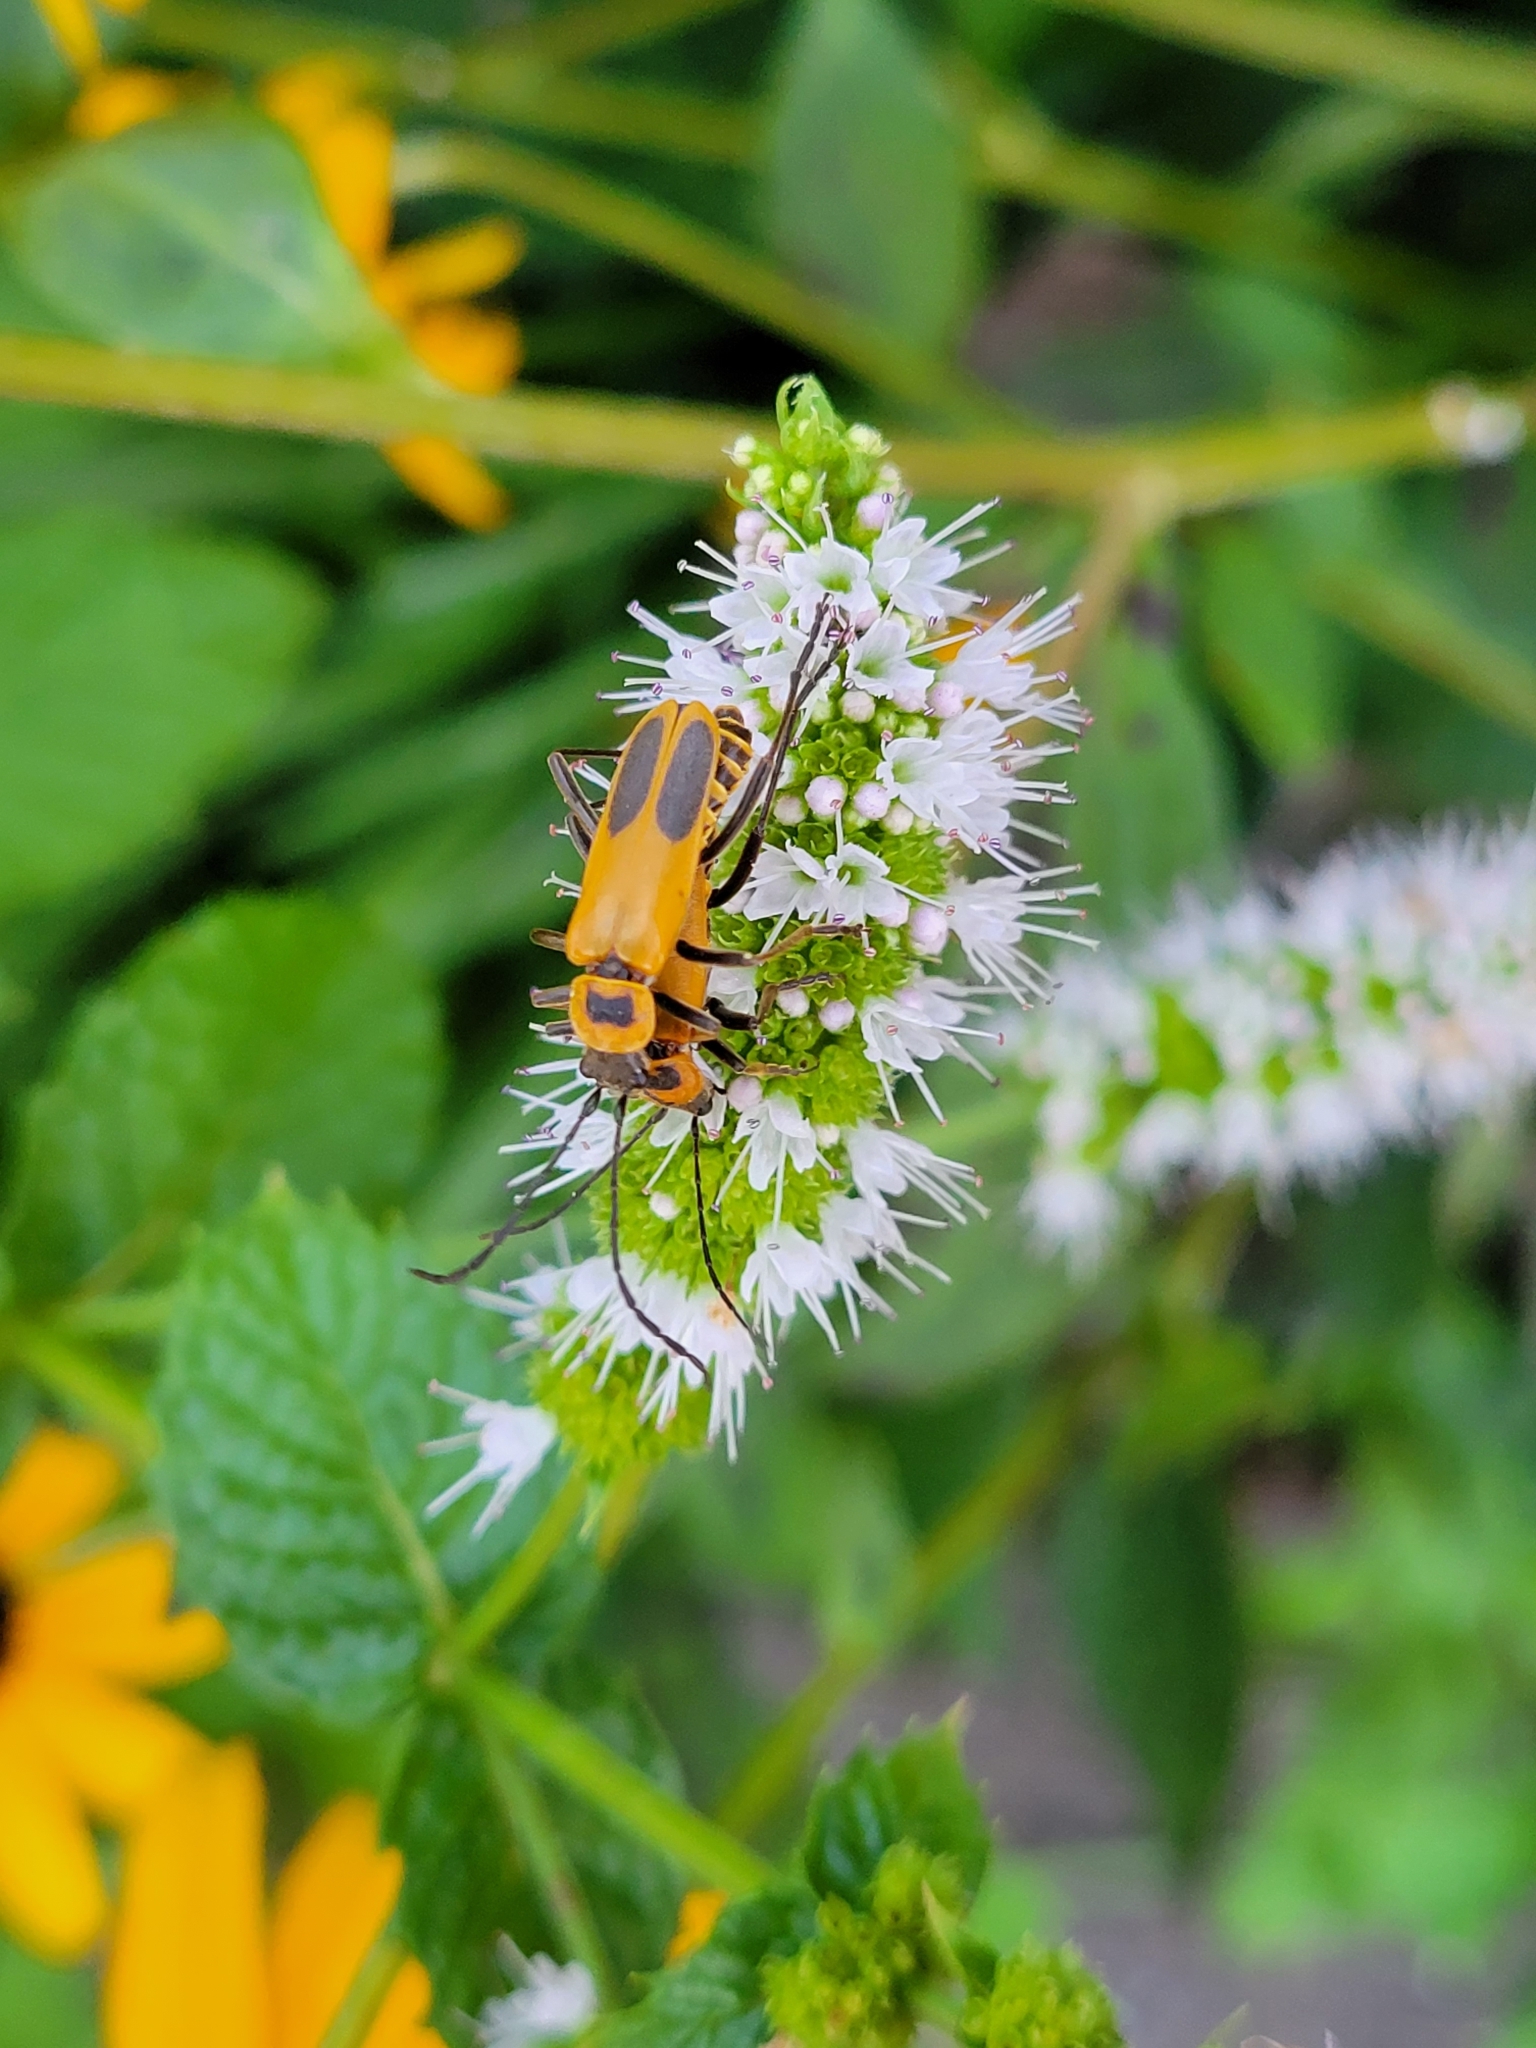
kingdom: Animalia
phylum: Arthropoda
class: Insecta
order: Coleoptera
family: Cantharidae
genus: Chauliognathus
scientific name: Chauliognathus pensylvanicus
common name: Goldenrod soldier beetle
